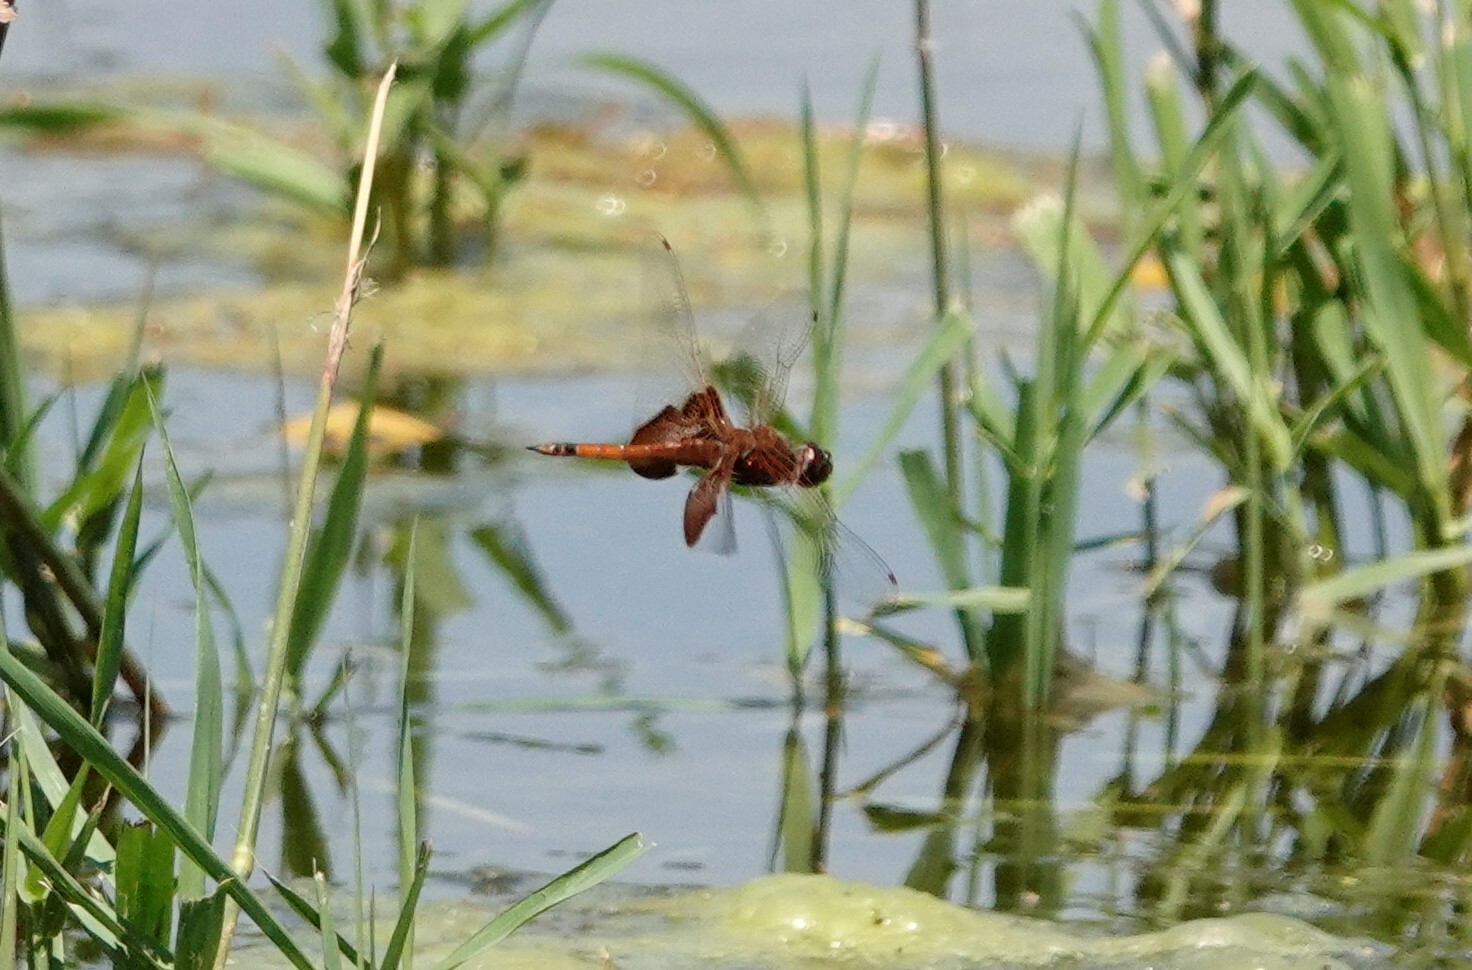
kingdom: Animalia
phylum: Arthropoda
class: Insecta
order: Odonata
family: Libellulidae
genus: Tramea
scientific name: Tramea carolina
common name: Carolina saddlebags
